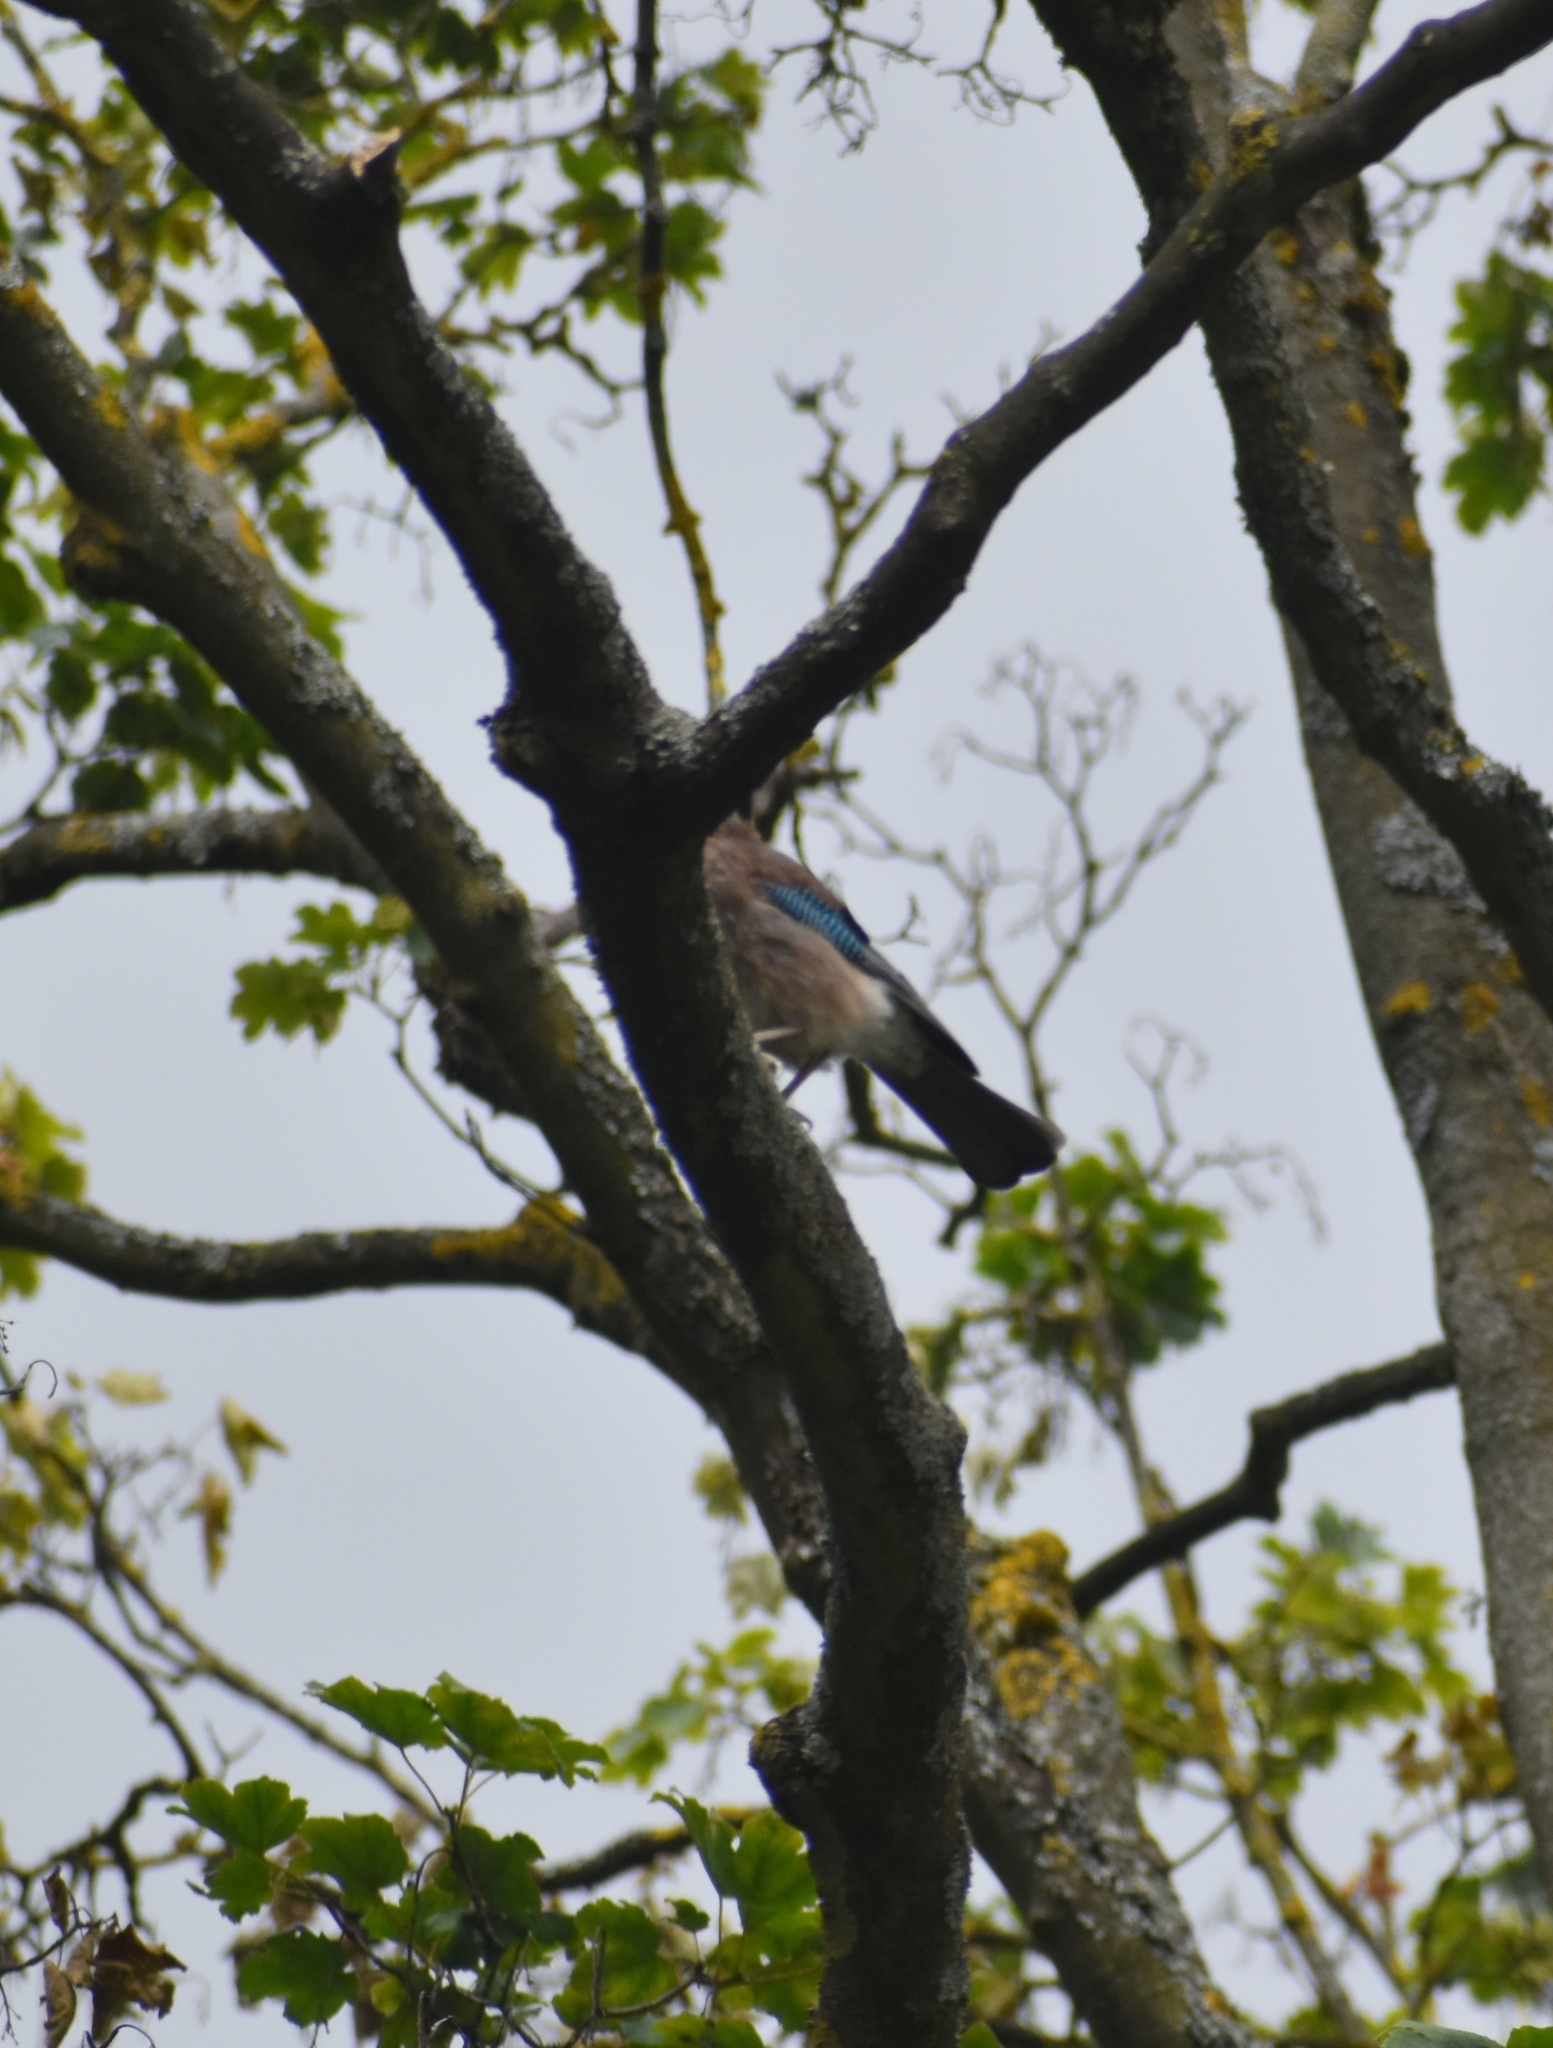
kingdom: Animalia
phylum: Chordata
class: Aves
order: Passeriformes
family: Corvidae
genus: Garrulus
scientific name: Garrulus glandarius
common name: Eurasian jay
